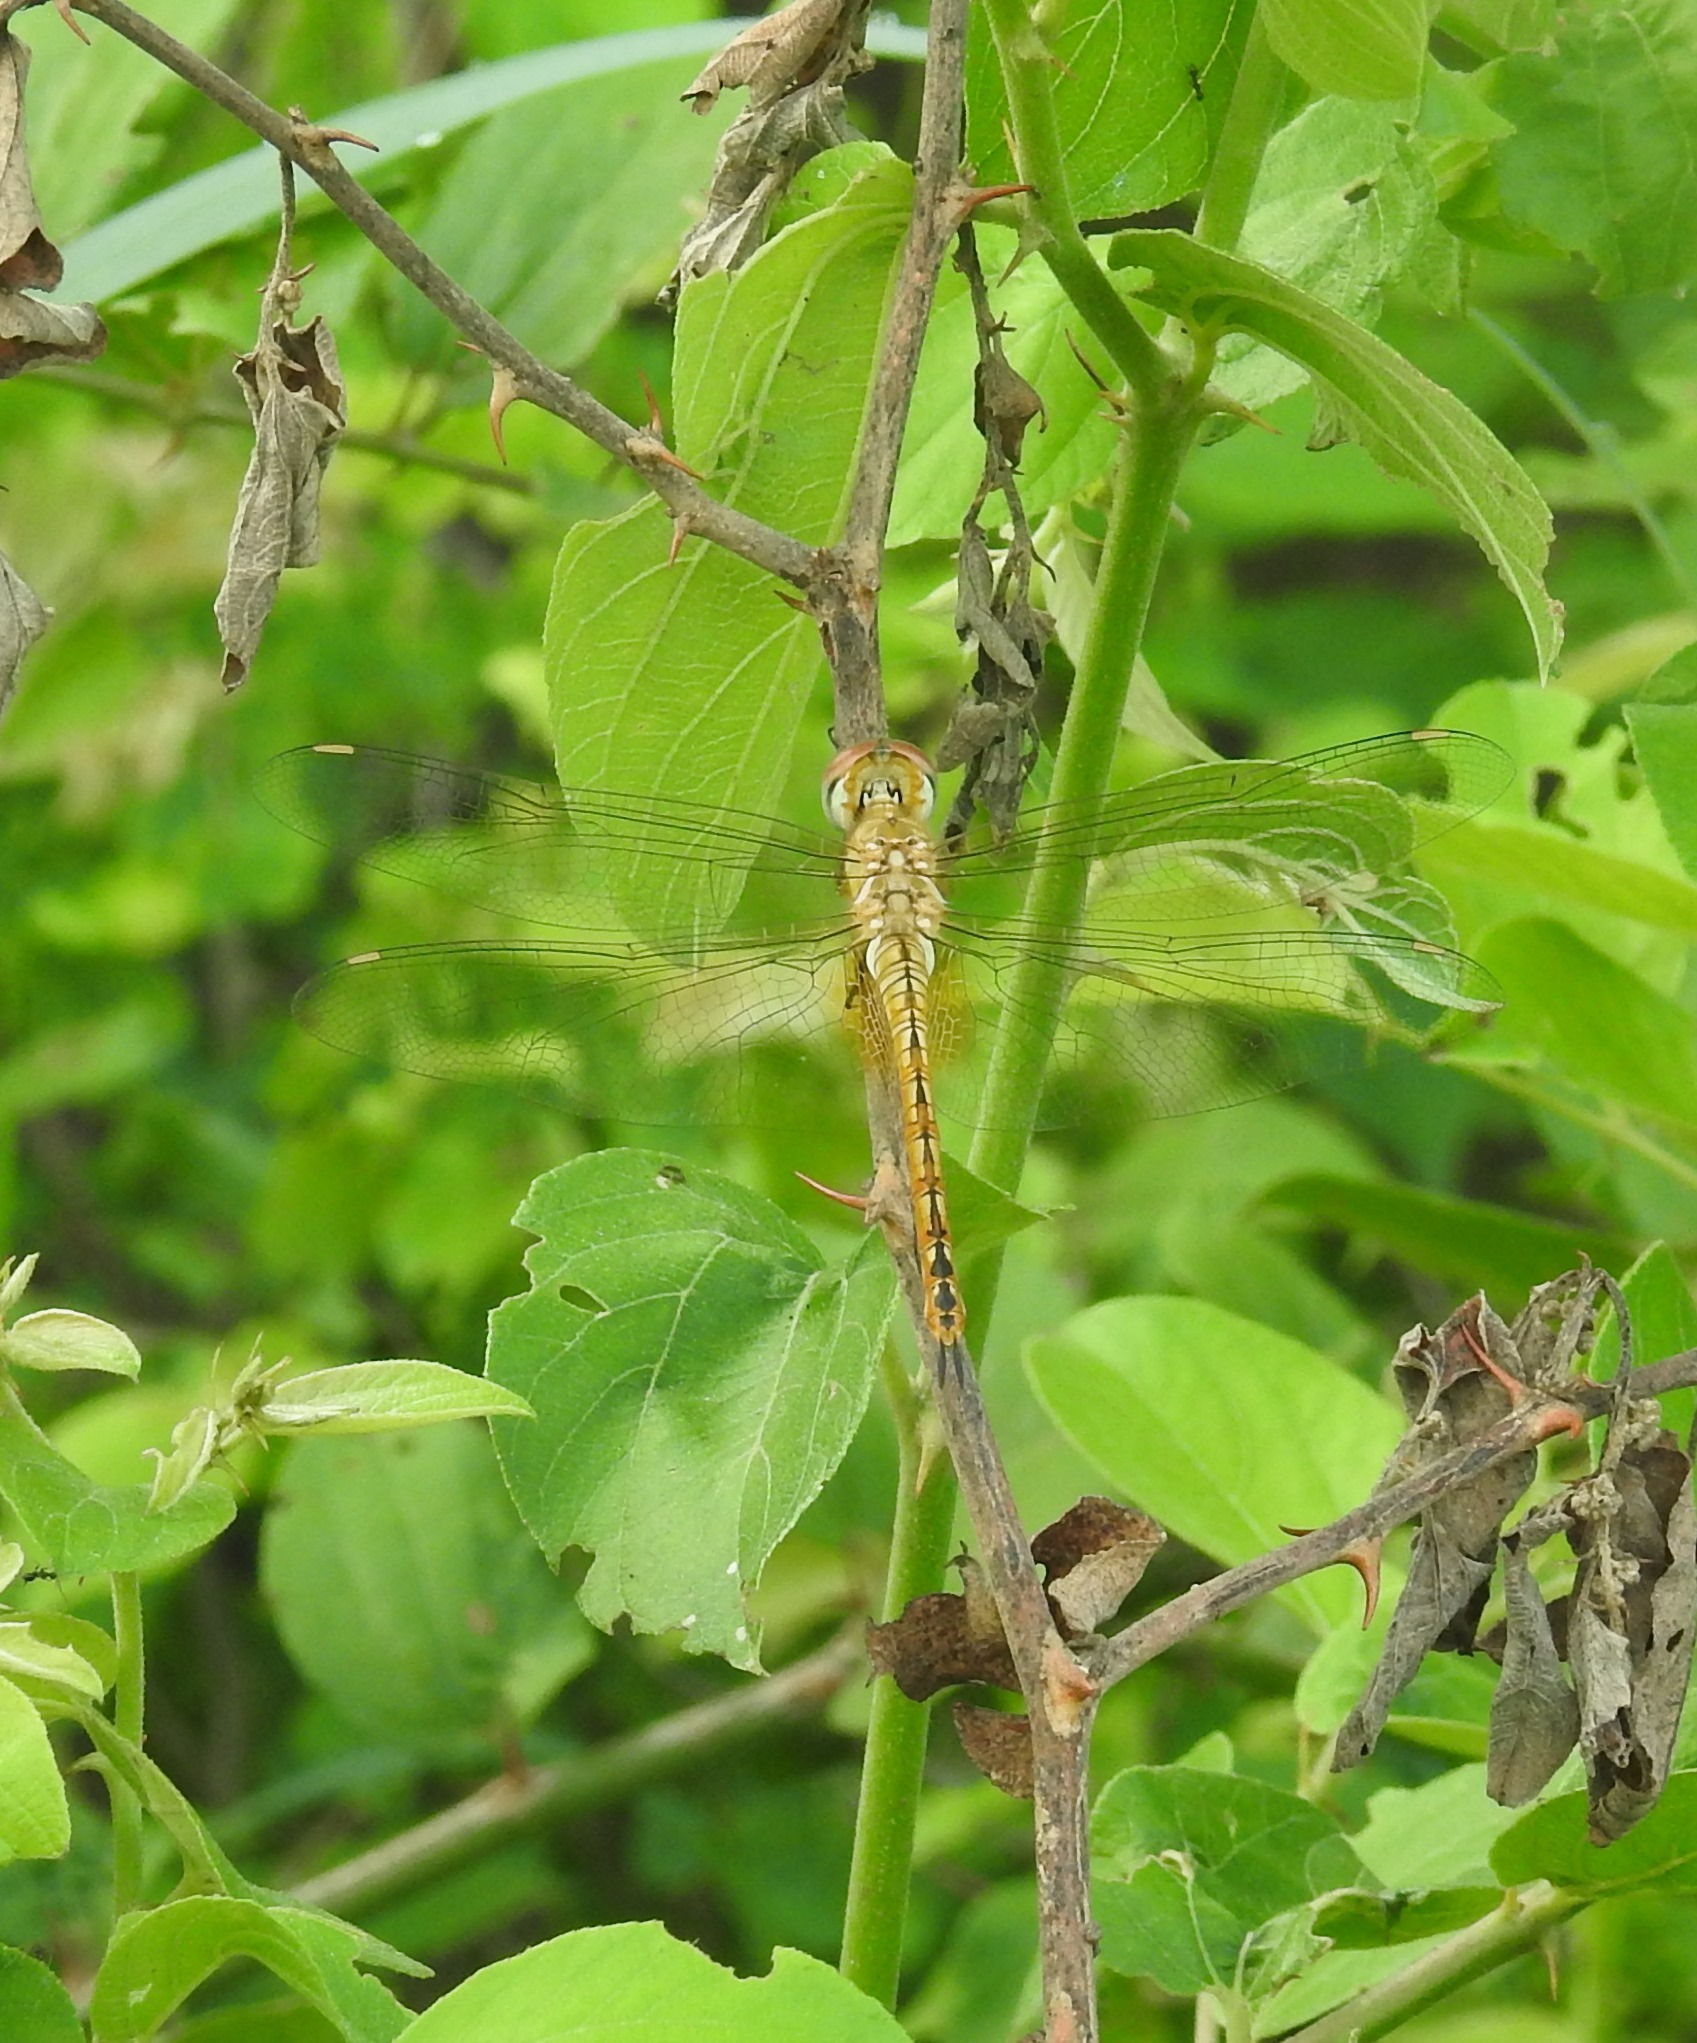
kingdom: Animalia
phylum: Arthropoda
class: Insecta
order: Odonata
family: Libellulidae
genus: Pantala
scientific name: Pantala flavescens
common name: Wandering glider
